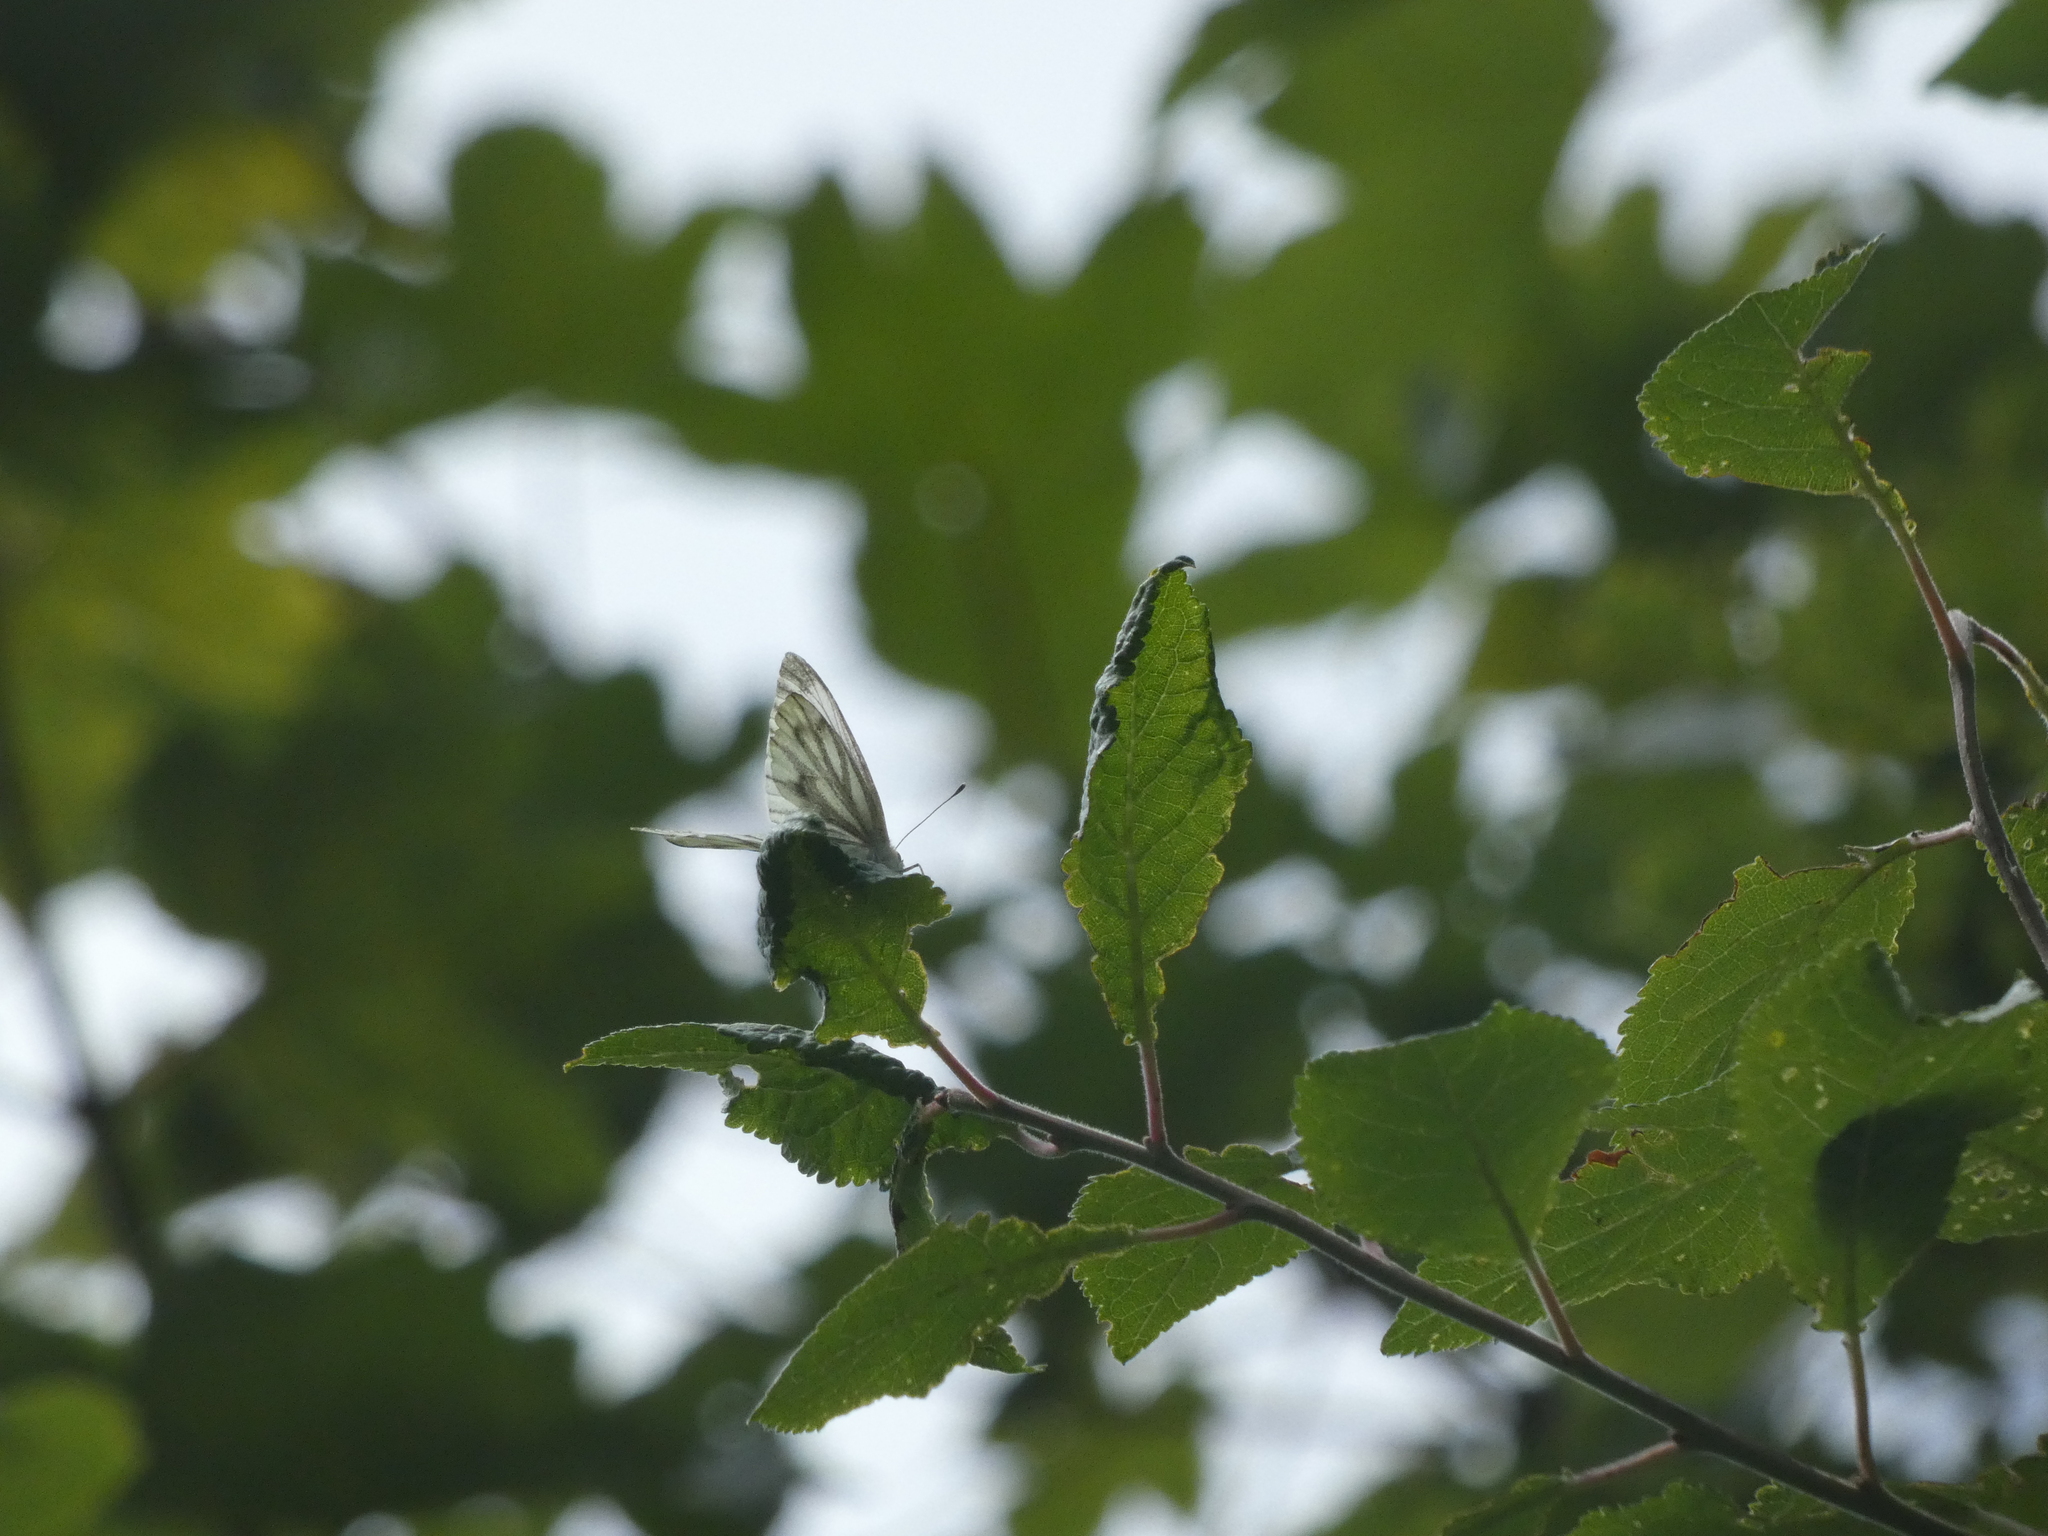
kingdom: Animalia
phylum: Arthropoda
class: Insecta
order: Lepidoptera
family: Pieridae
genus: Pieris
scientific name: Pieris napi
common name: Green-veined white
